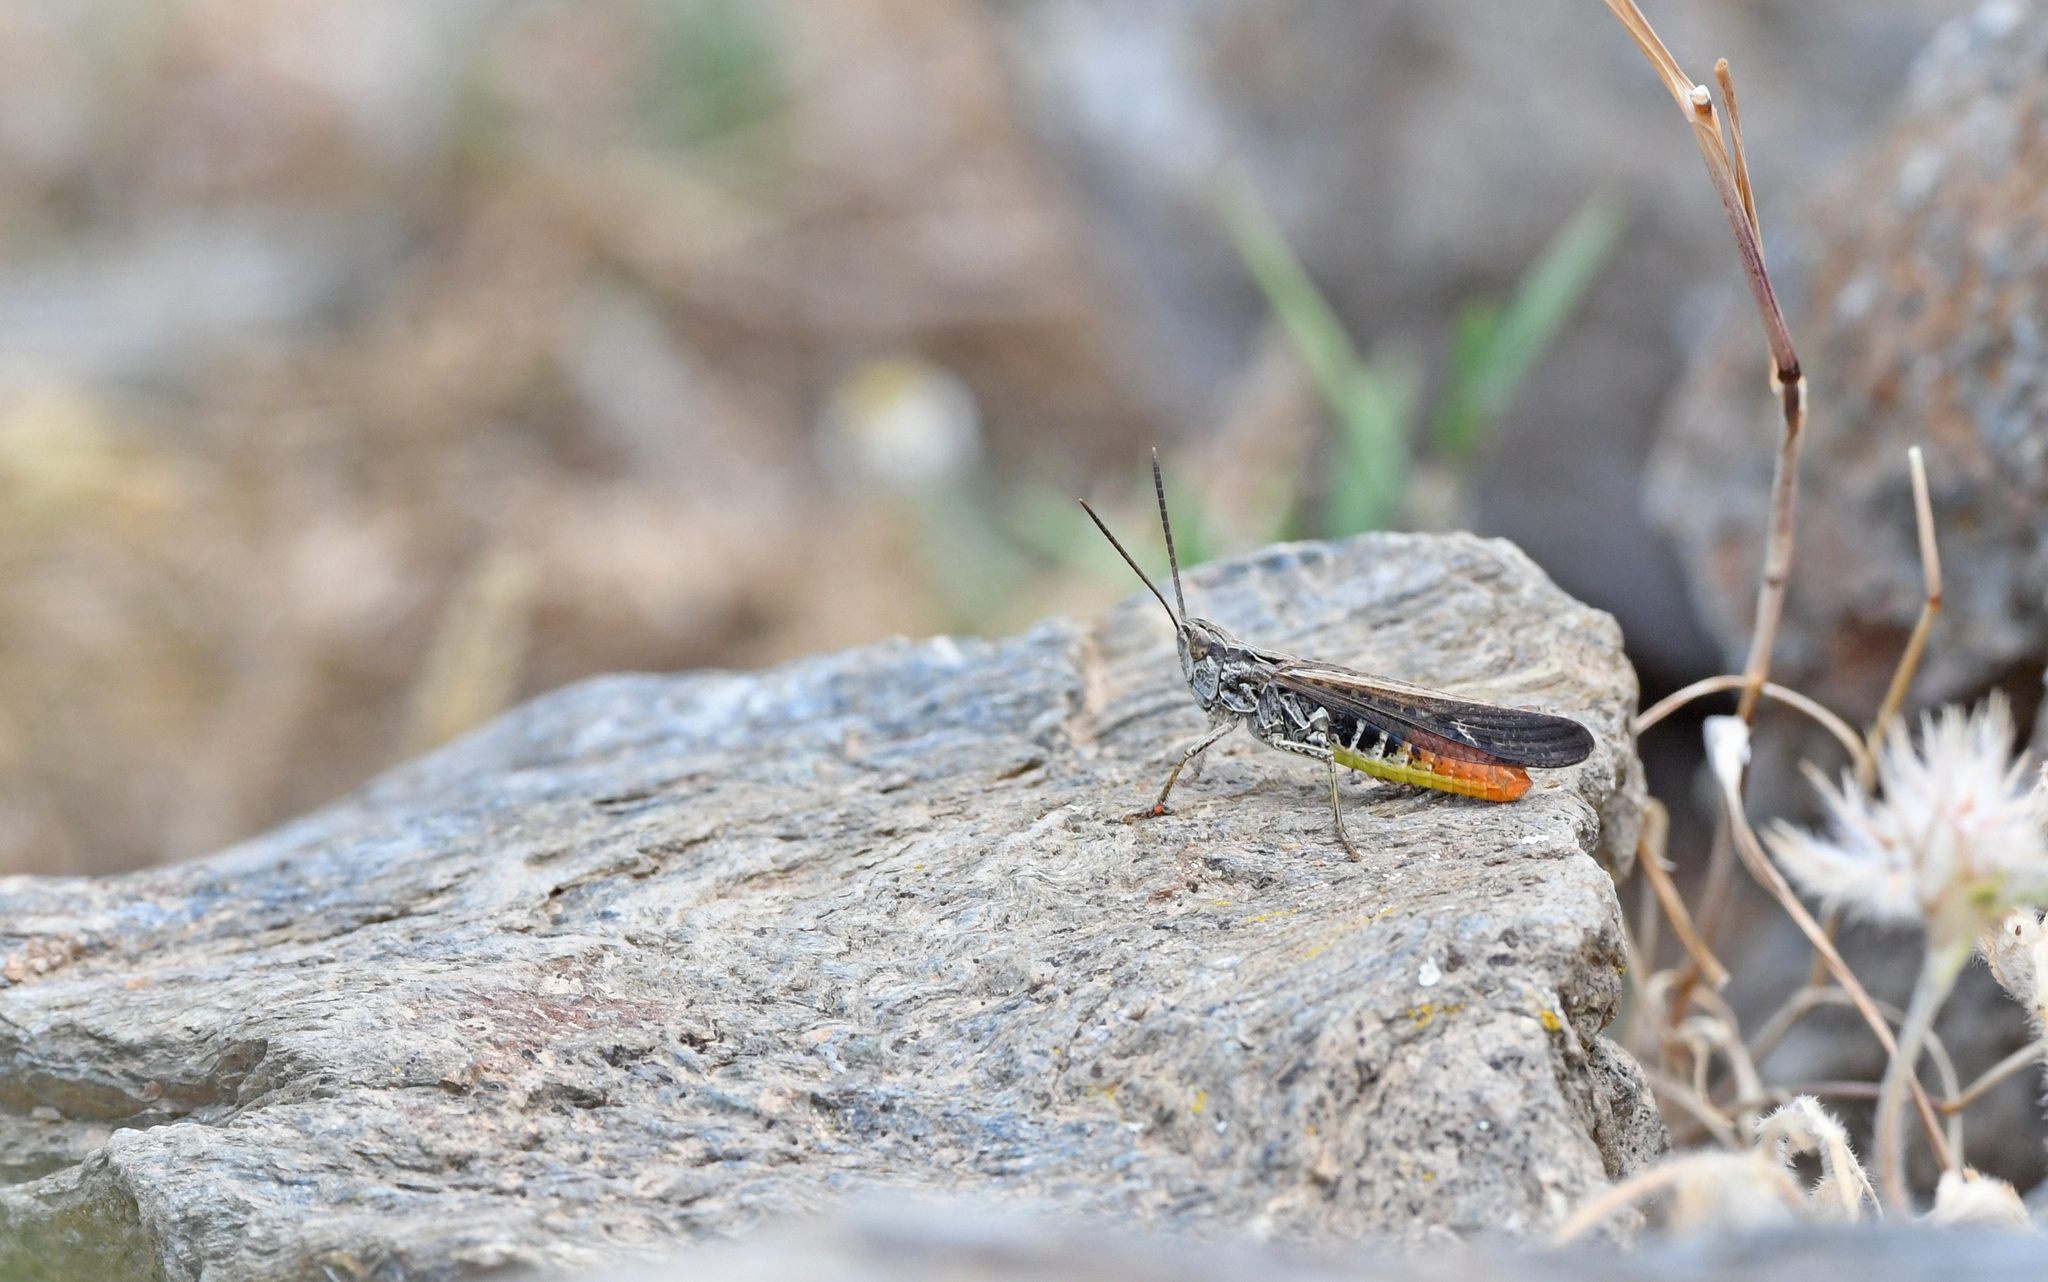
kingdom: Animalia
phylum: Arthropoda
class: Insecta
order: Orthoptera
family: Acrididae
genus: Chorthippus
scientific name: Chorthippus brunneus
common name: Field grasshopper
